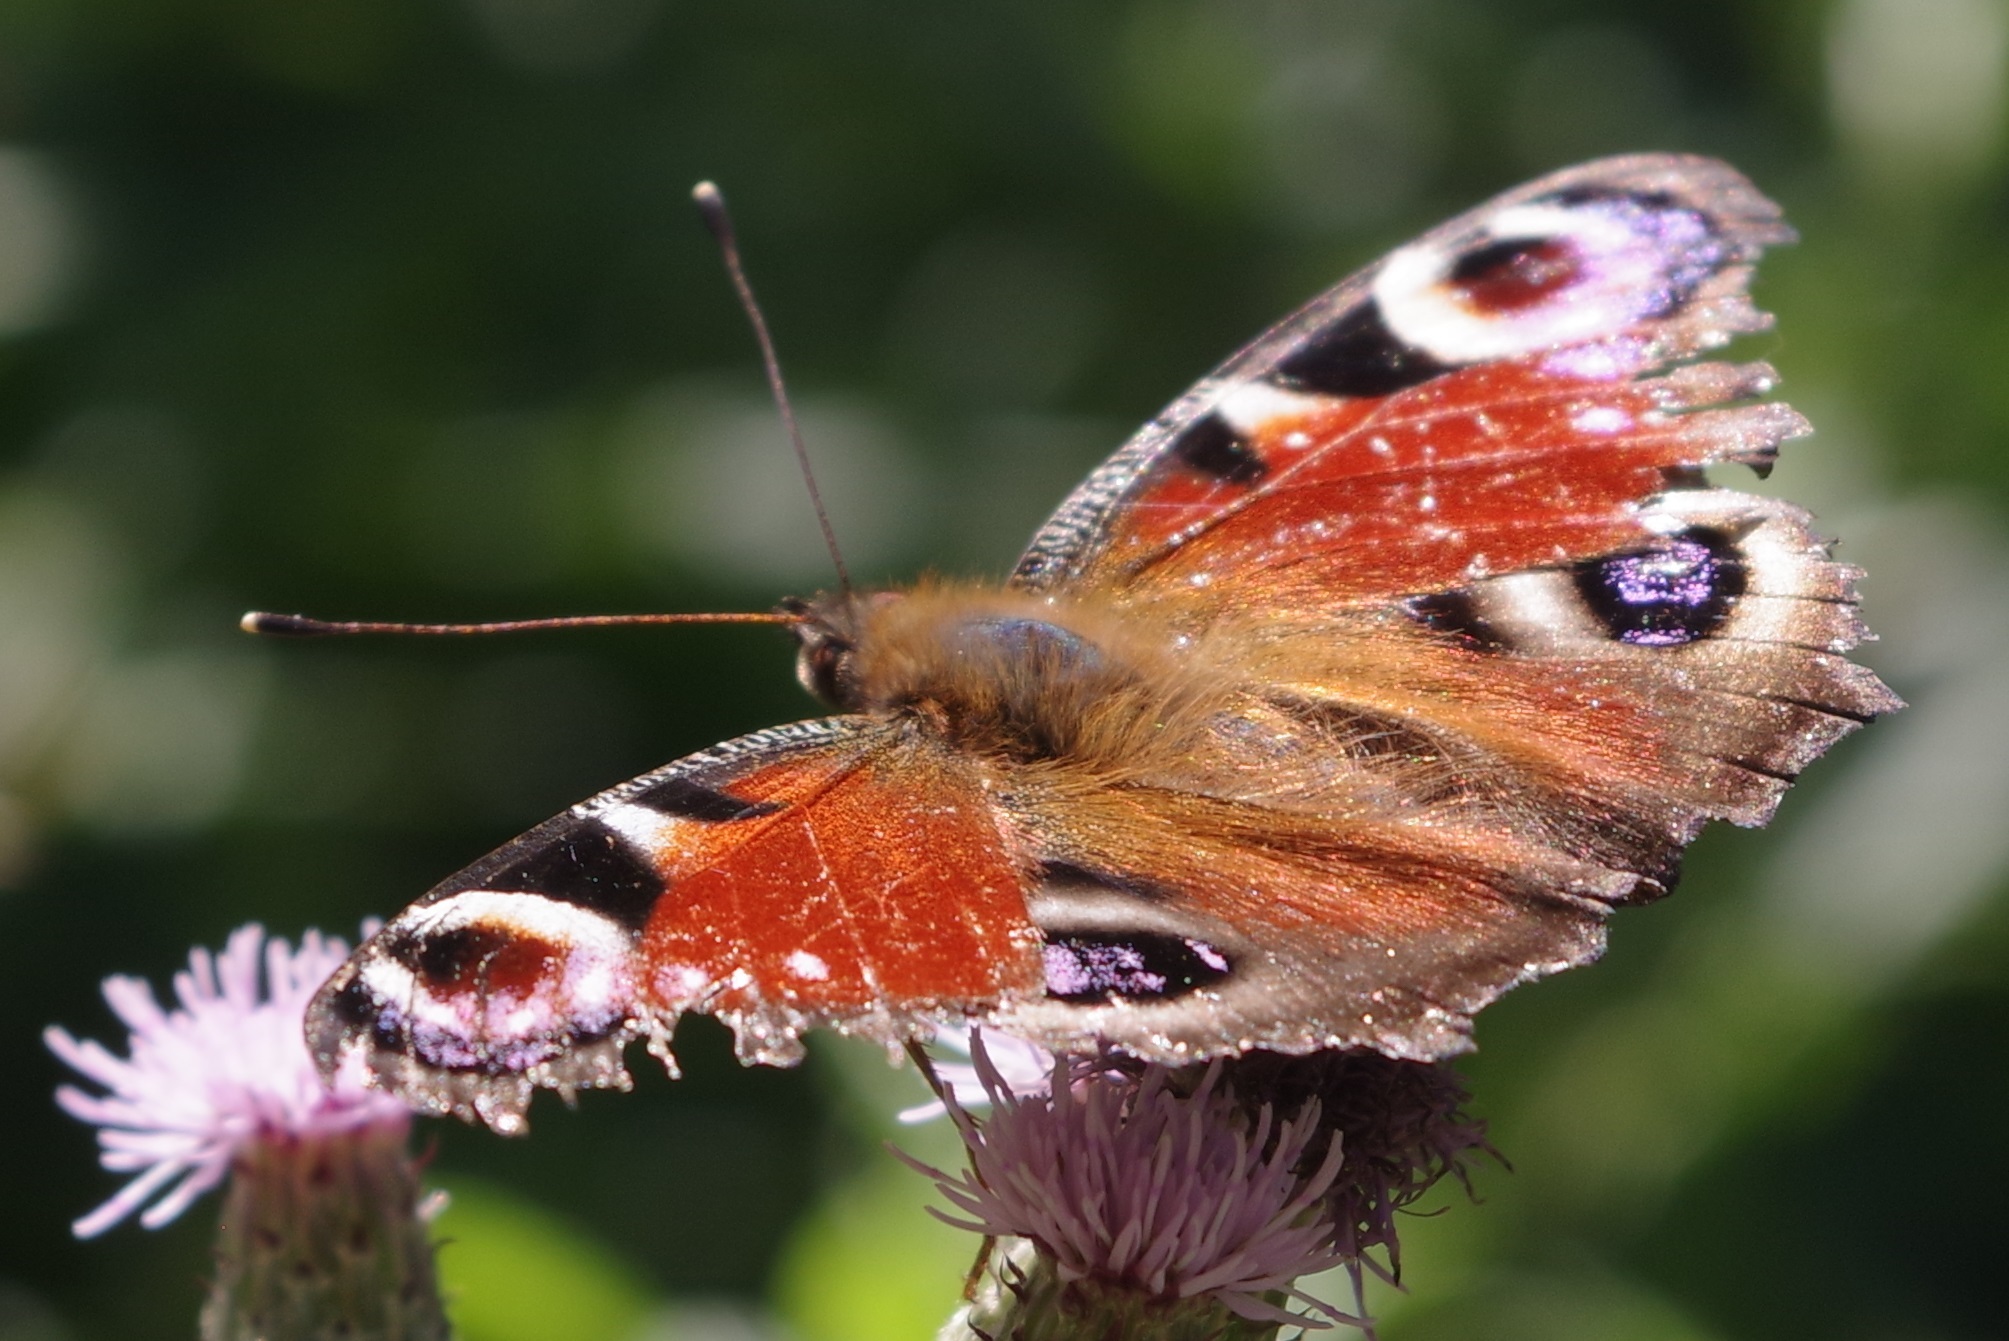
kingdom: Animalia
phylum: Arthropoda
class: Insecta
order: Lepidoptera
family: Nymphalidae
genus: Aglais
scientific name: Aglais io
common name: Peacock
